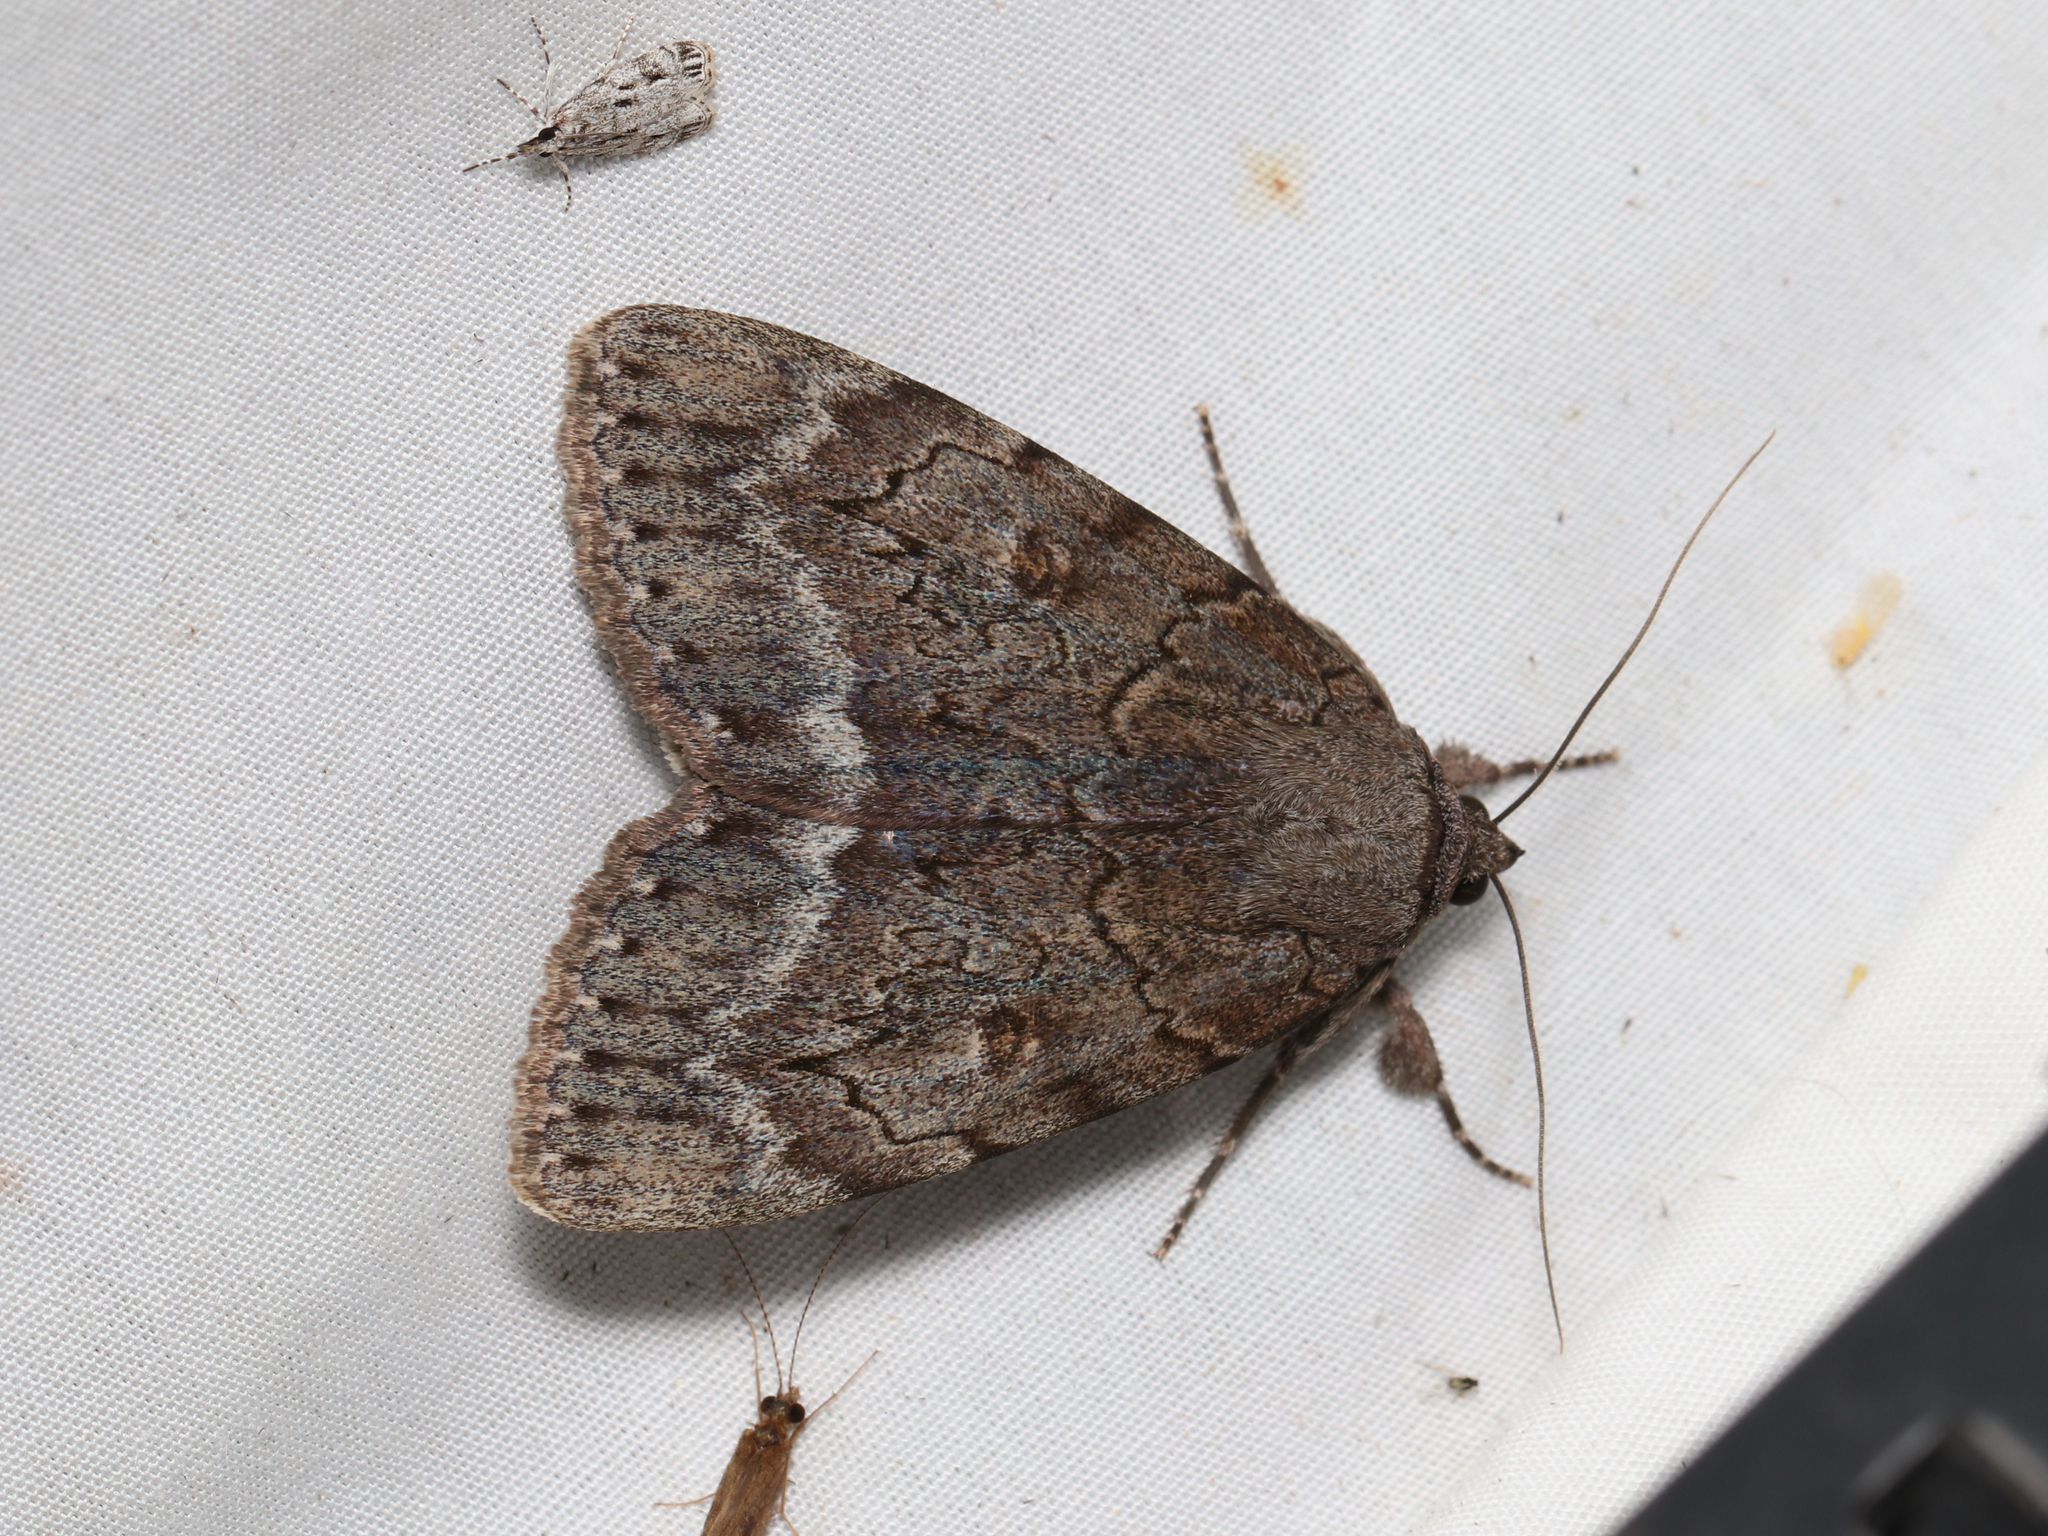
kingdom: Animalia
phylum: Arthropoda
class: Insecta
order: Lepidoptera
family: Erebidae
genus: Catocala
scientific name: Catocala obscura
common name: Obscure underwing moth
